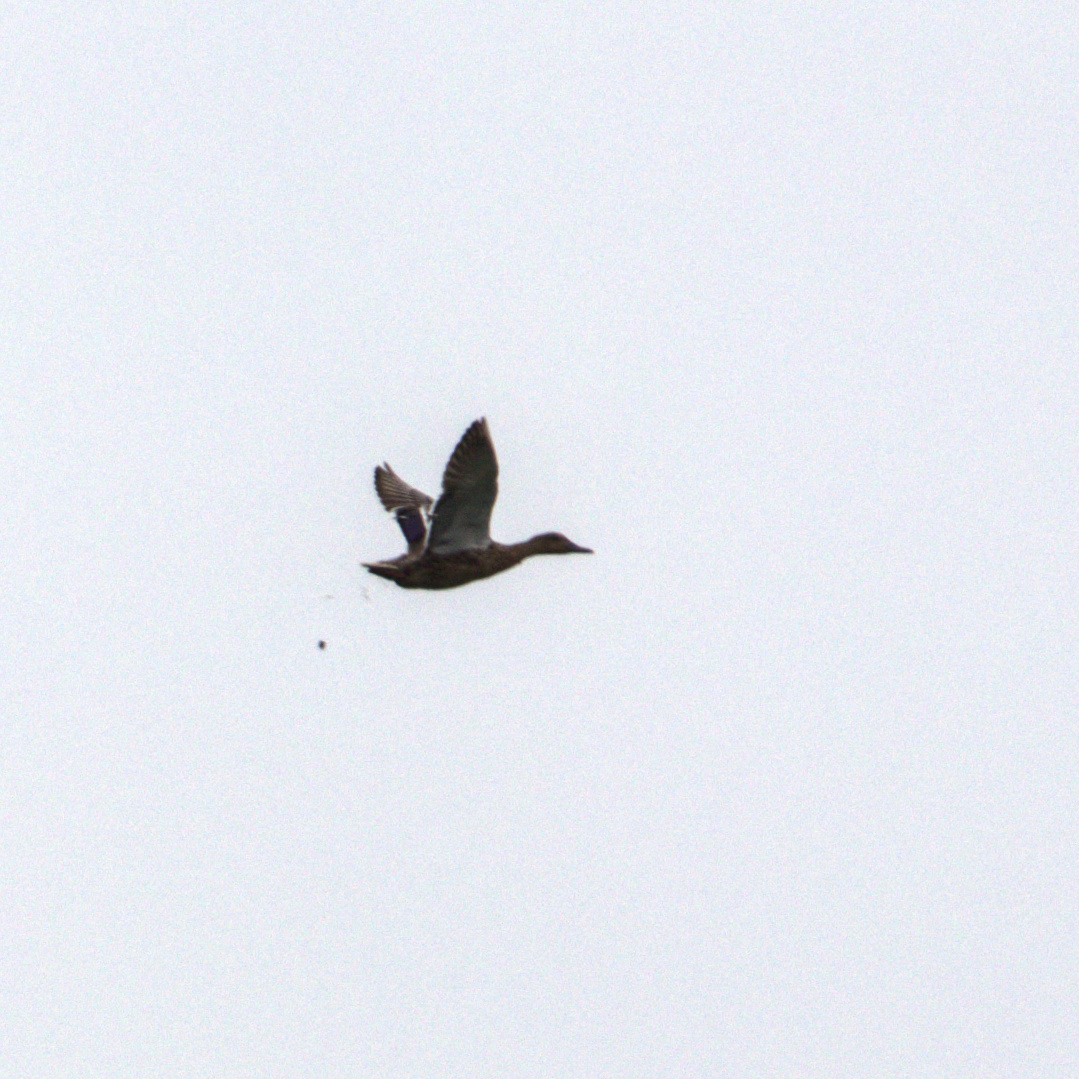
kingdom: Animalia
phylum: Chordata
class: Aves
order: Anseriformes
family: Anatidae
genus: Anas
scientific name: Anas platyrhynchos
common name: Mallard
